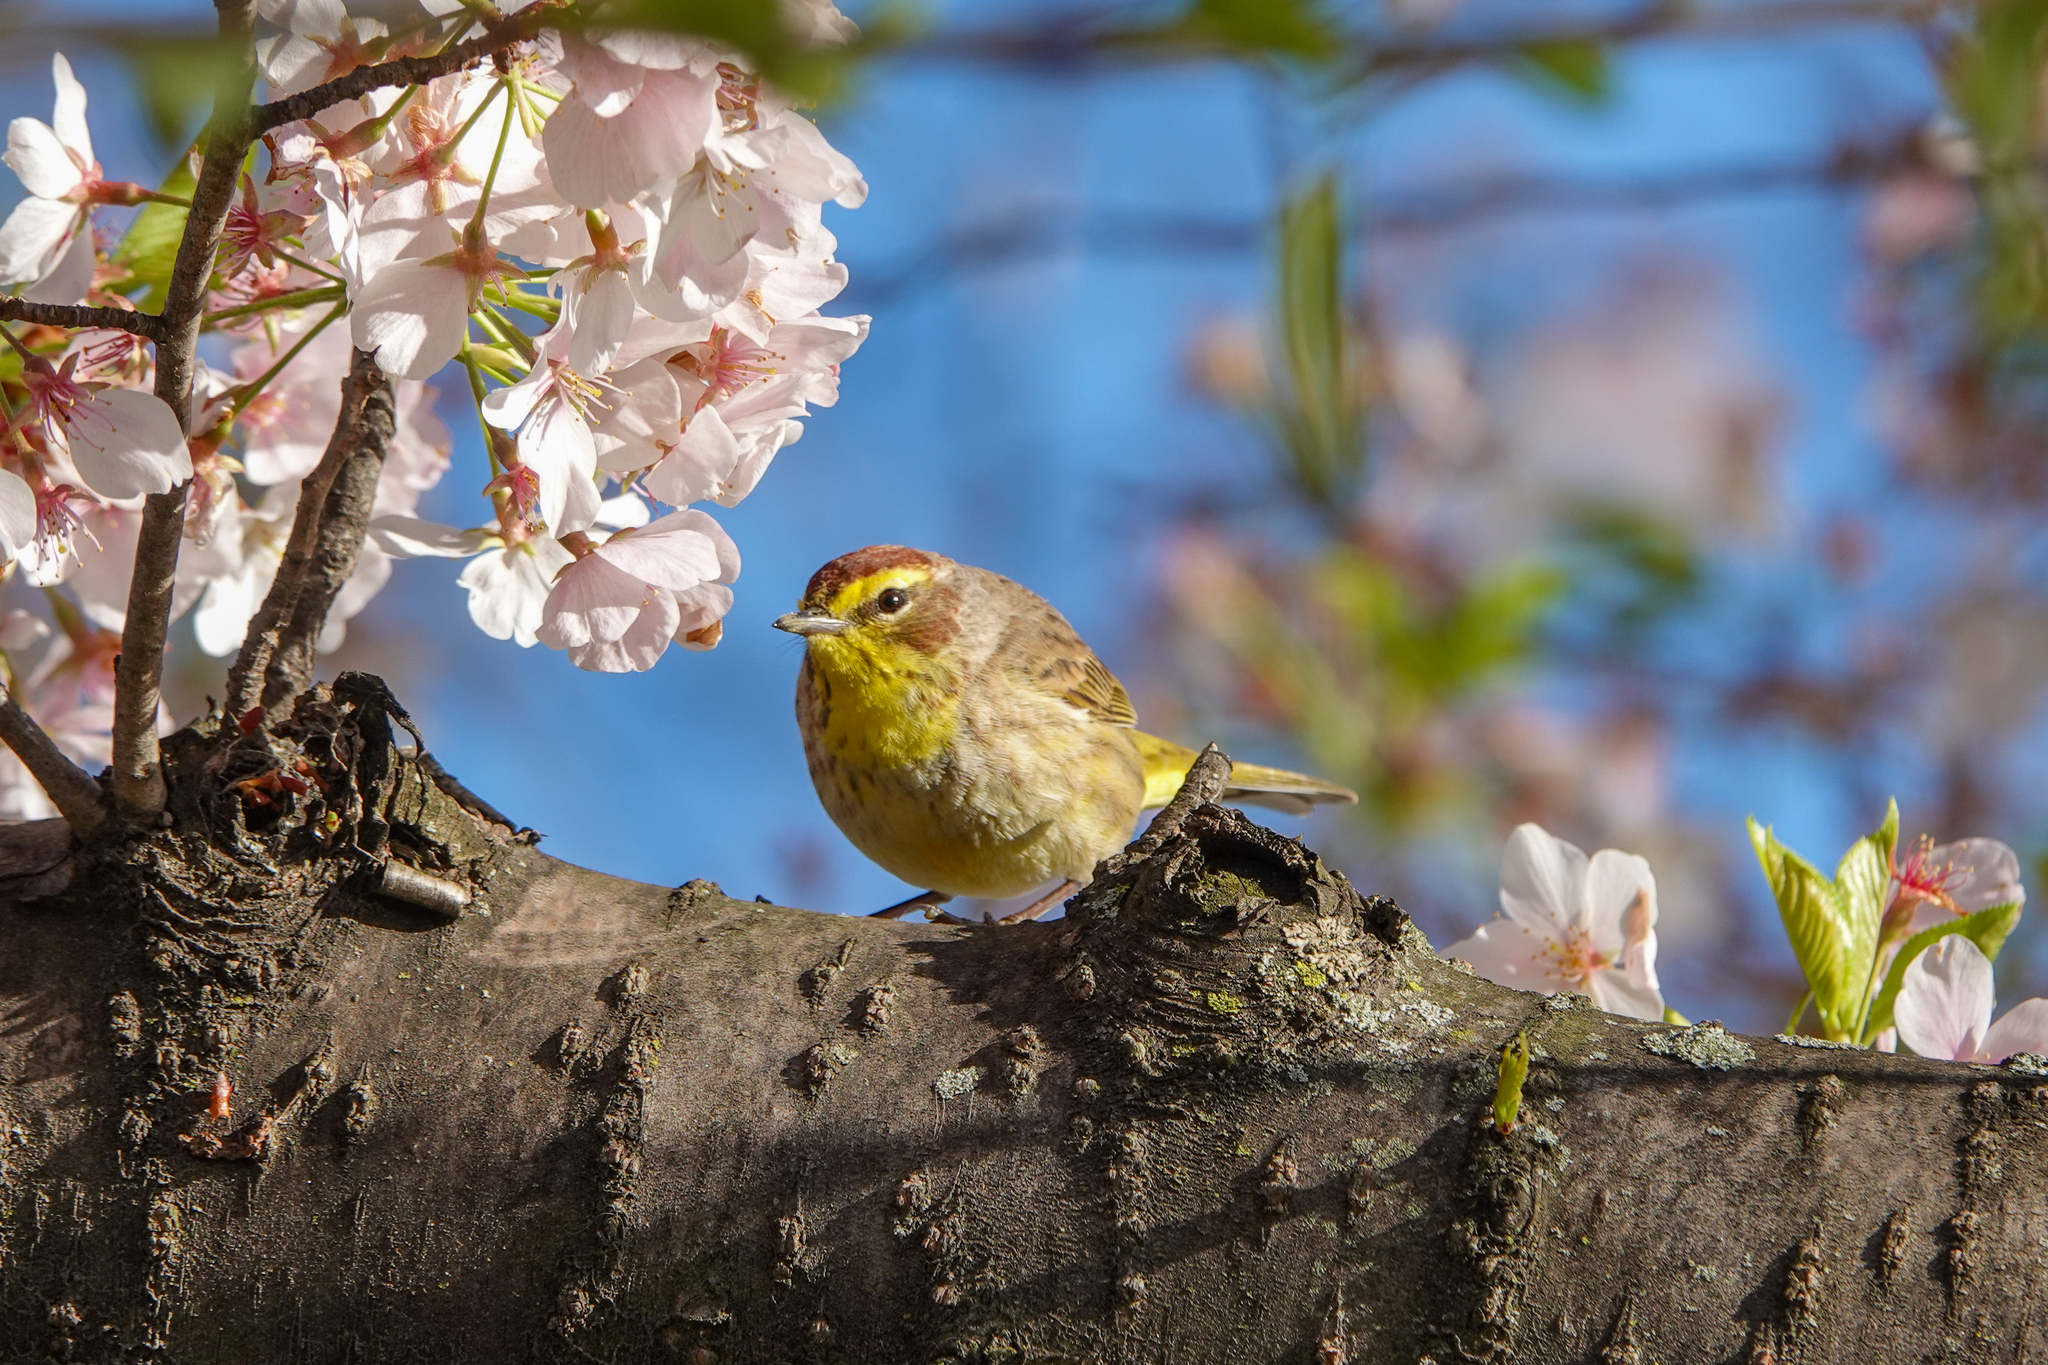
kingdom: Animalia
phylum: Chordata
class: Aves
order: Passeriformes
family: Parulidae
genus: Setophaga
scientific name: Setophaga palmarum
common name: Palm warbler
